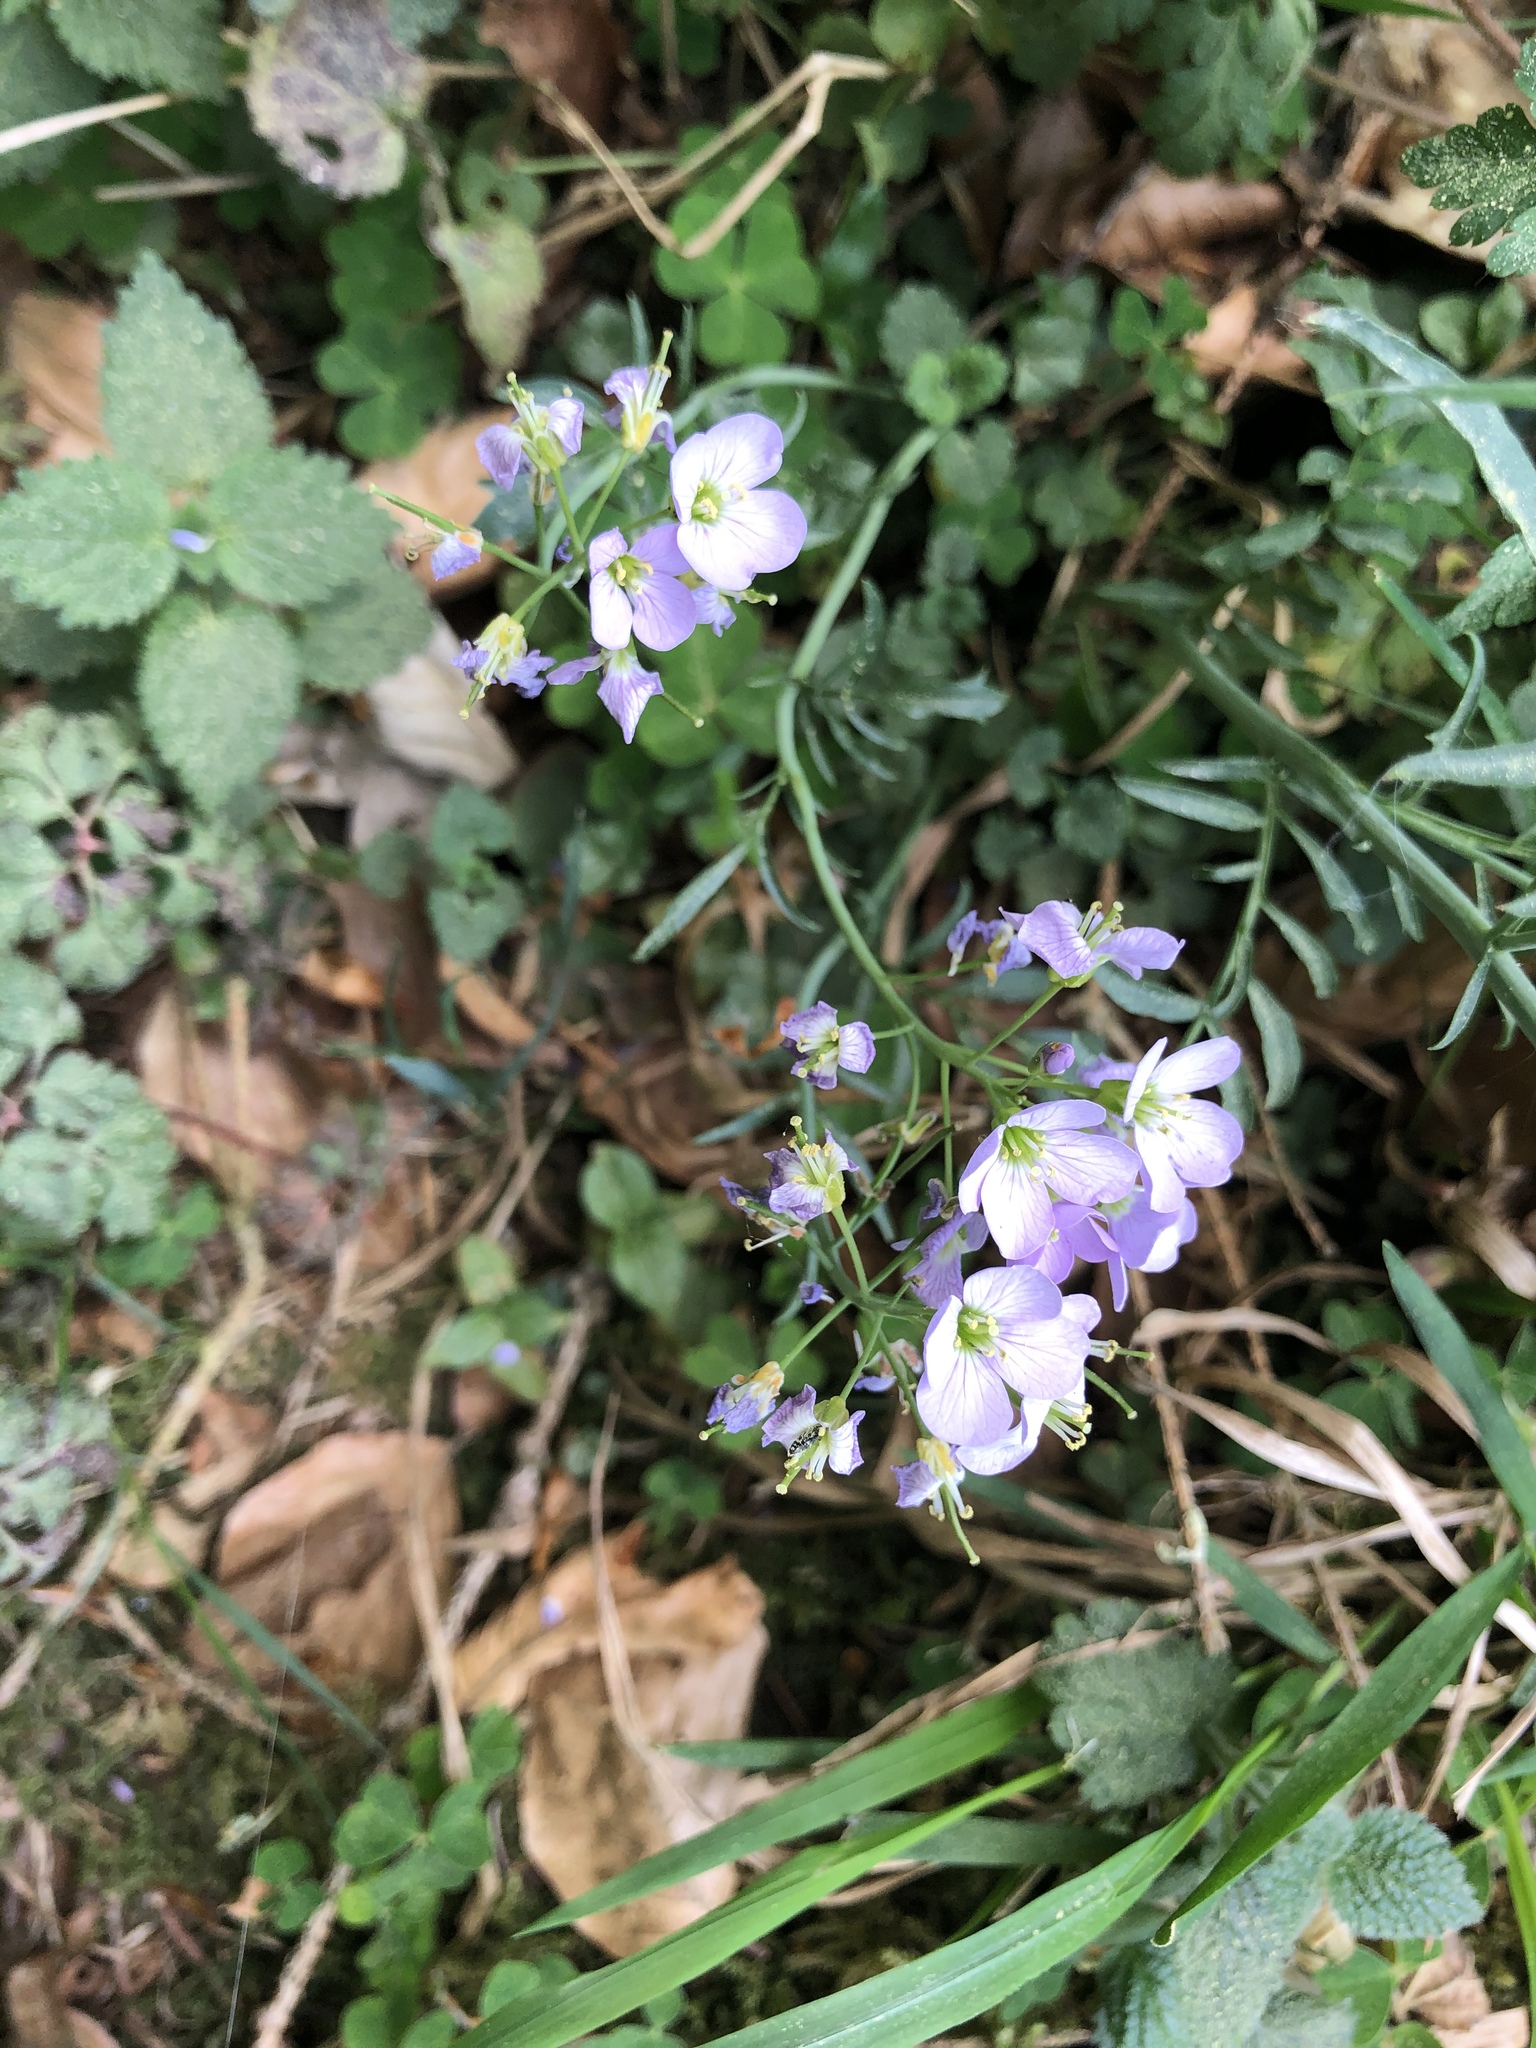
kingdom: Plantae
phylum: Tracheophyta
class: Magnoliopsida
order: Brassicales
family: Brassicaceae
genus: Cardamine
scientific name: Cardamine pratensis
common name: Cuckoo flower
